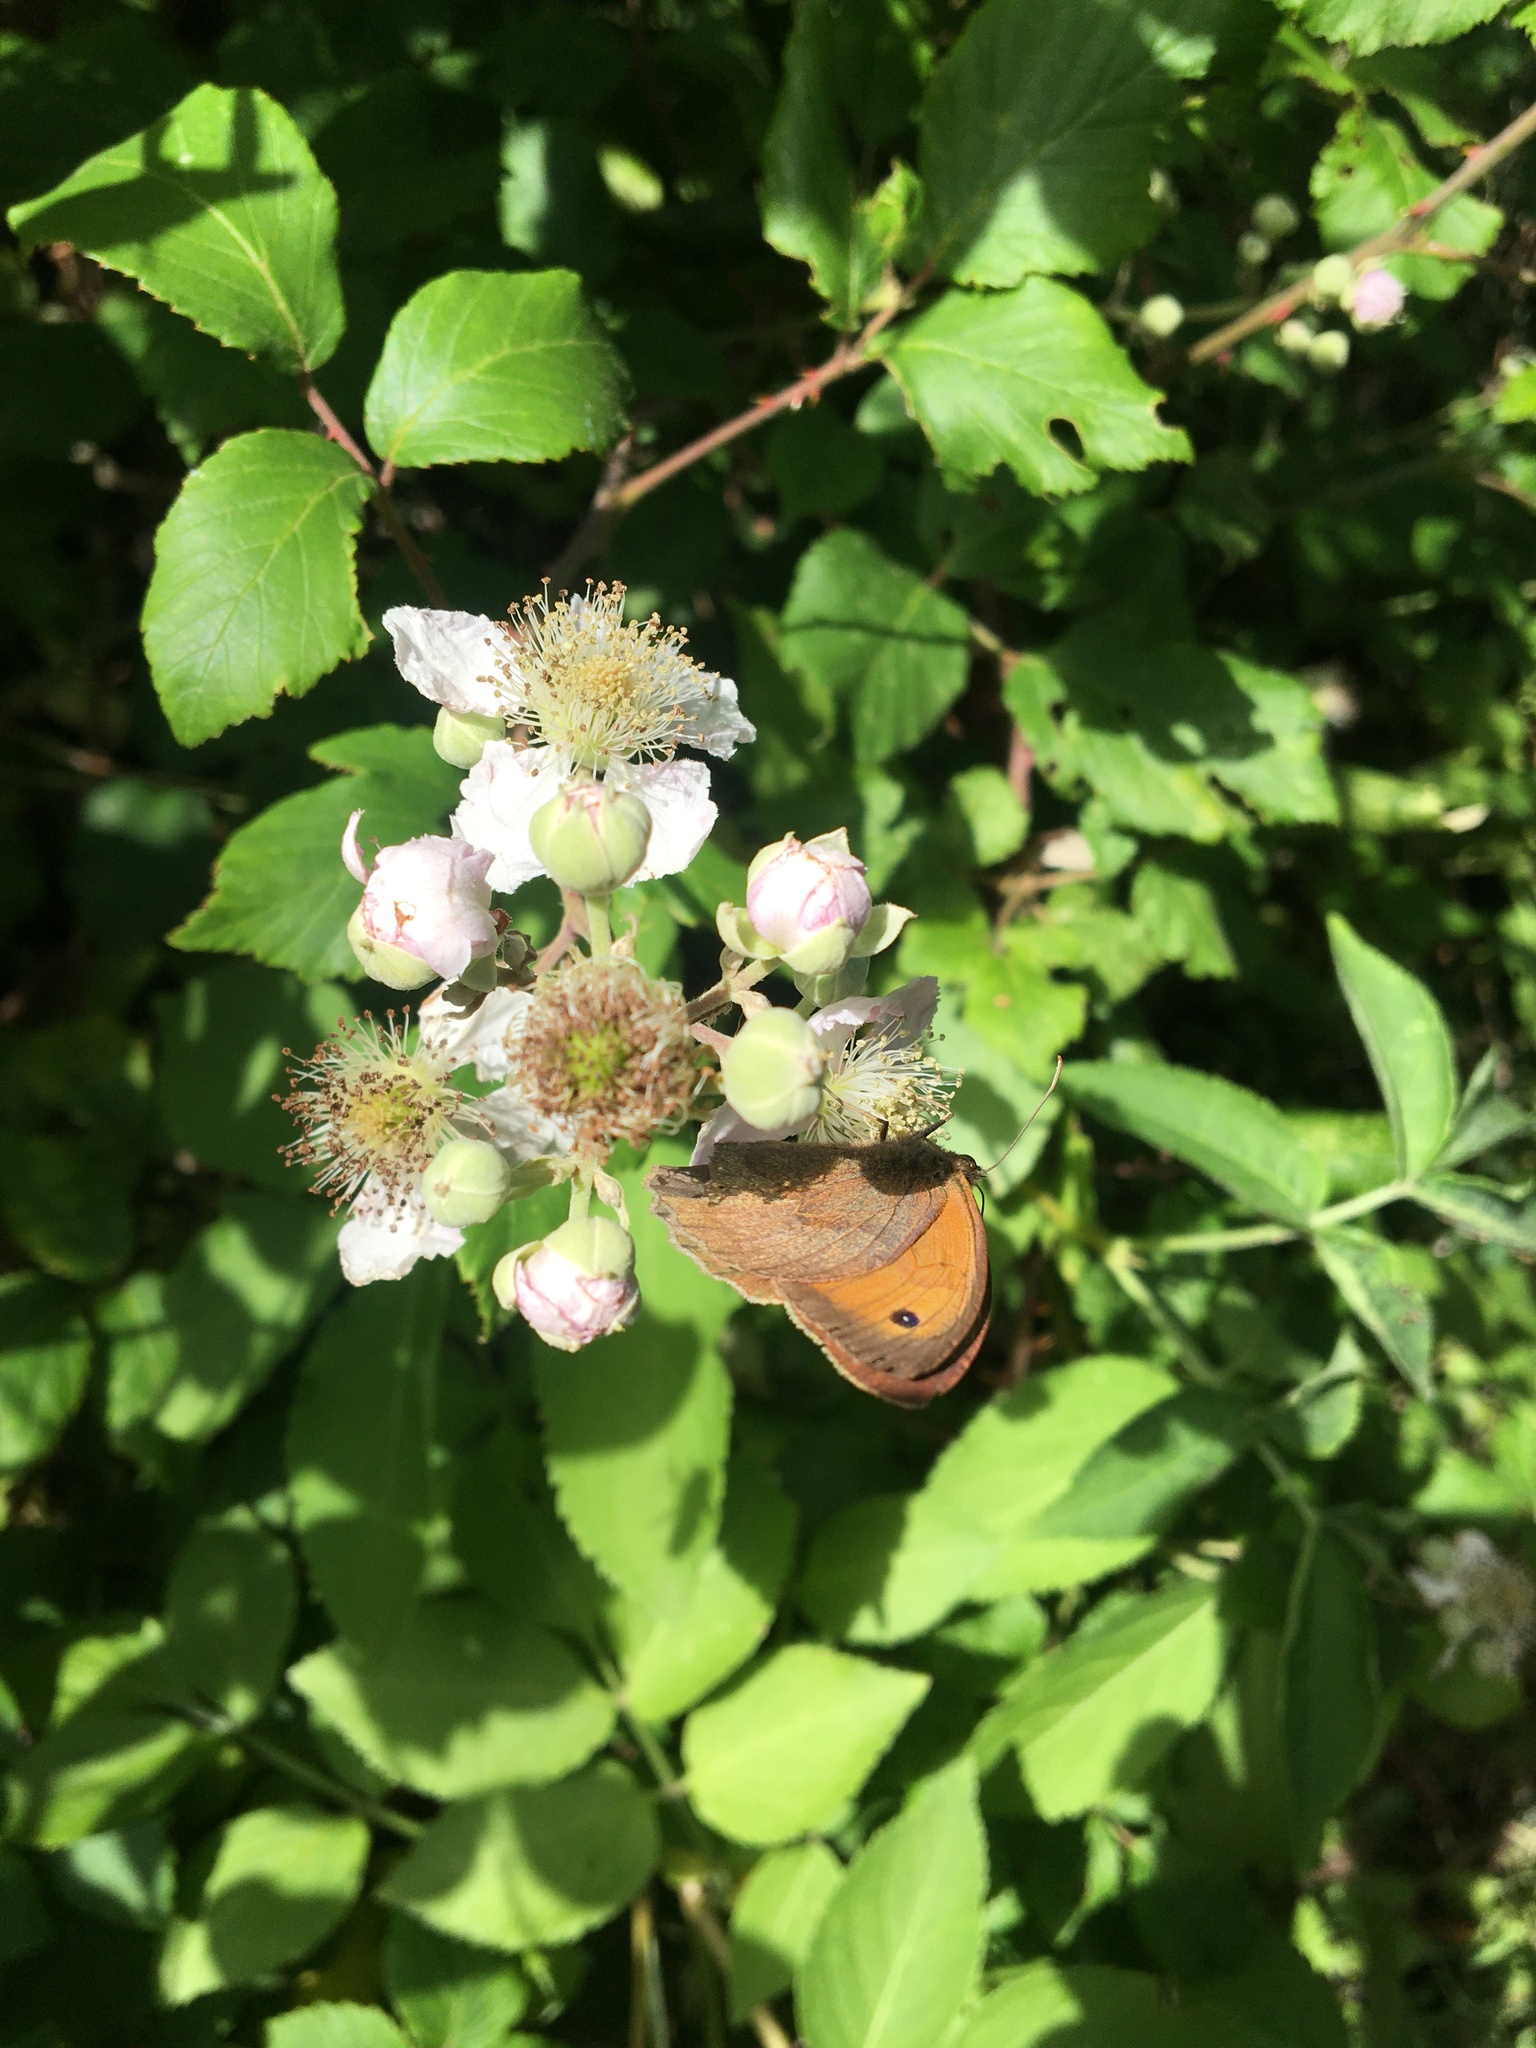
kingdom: Animalia
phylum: Arthropoda
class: Insecta
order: Lepidoptera
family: Nymphalidae
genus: Maniola
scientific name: Maniola jurtina
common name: Meadow brown
